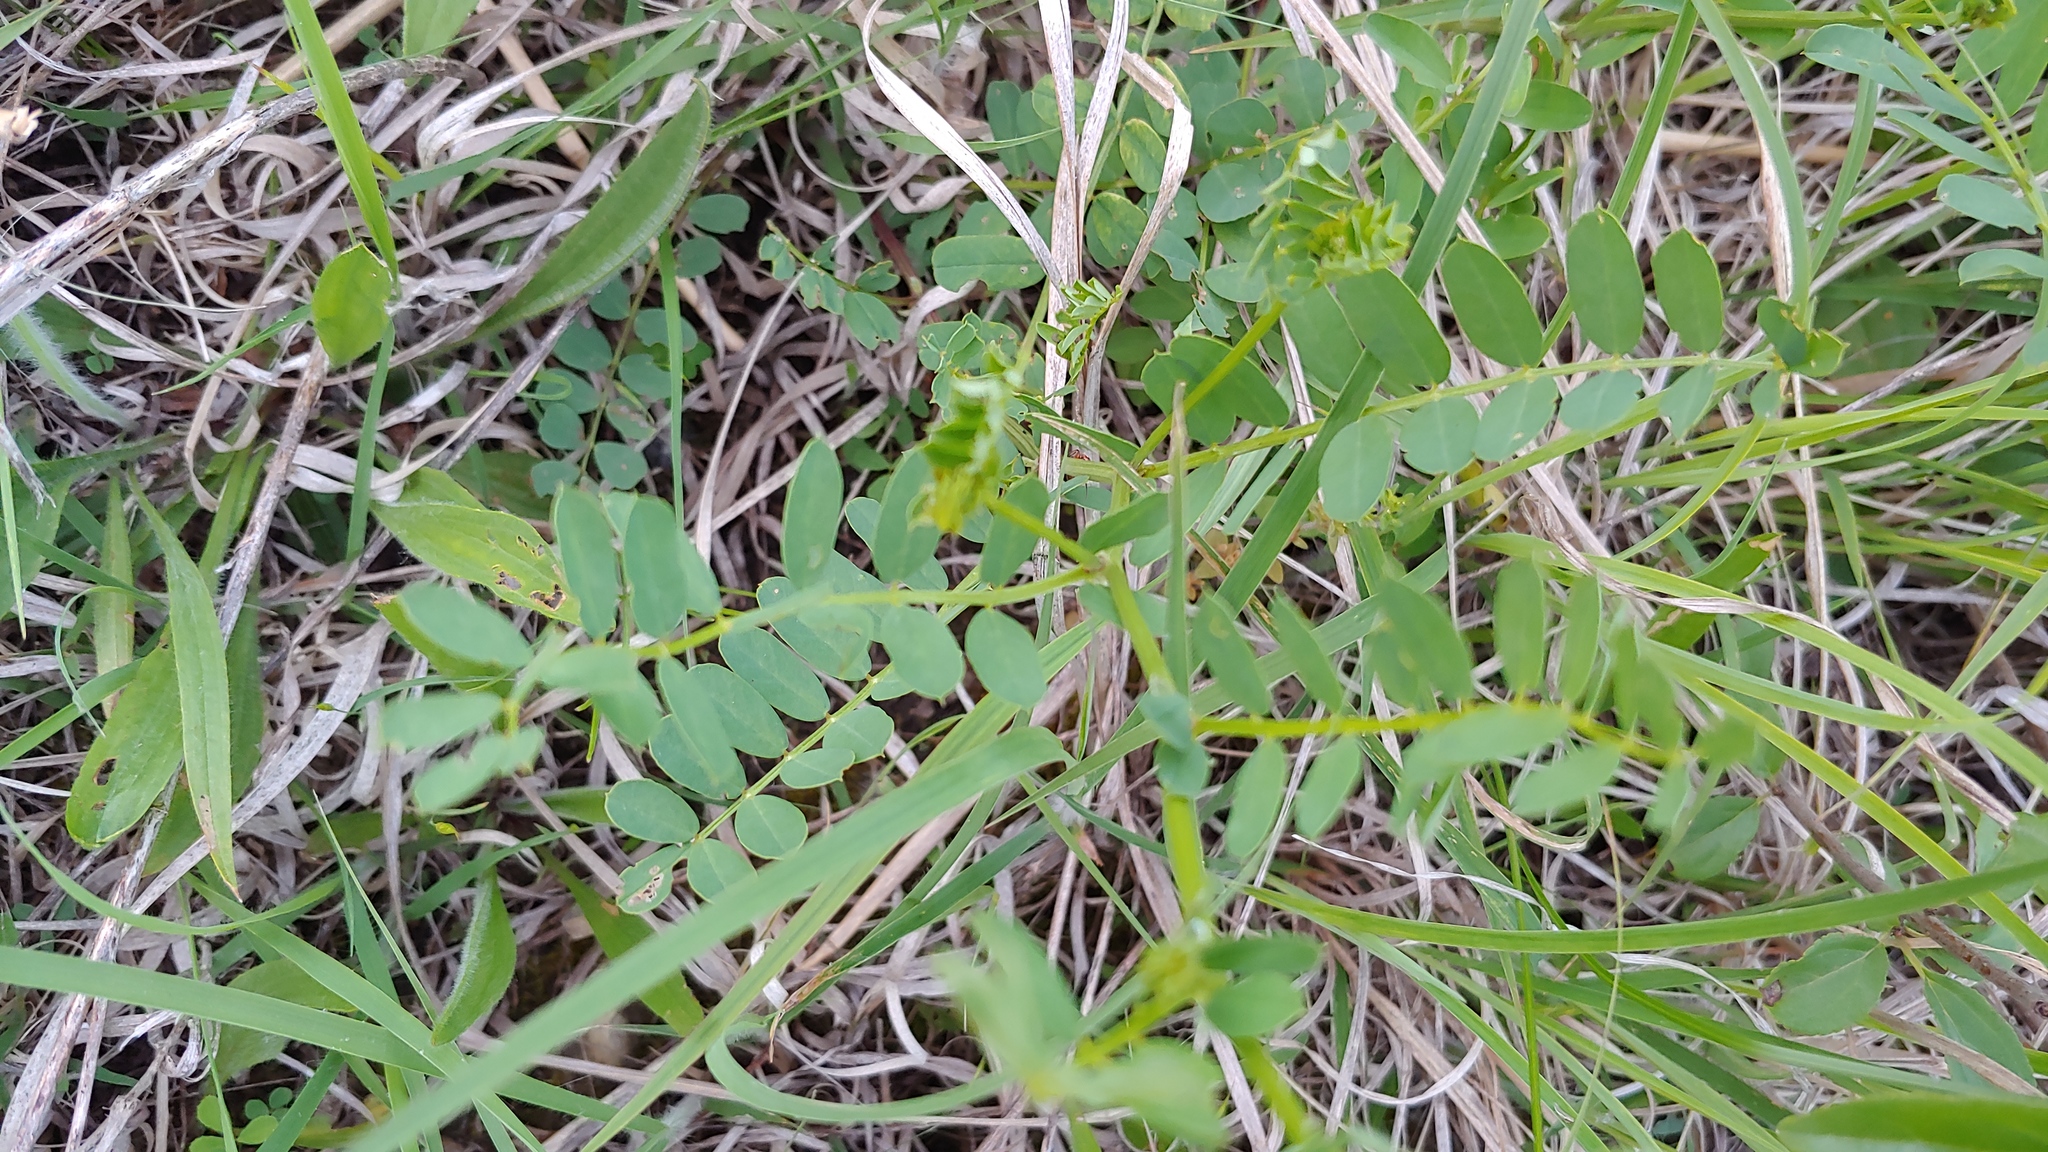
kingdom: Plantae
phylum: Tracheophyta
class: Magnoliopsida
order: Fabales
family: Fabaceae
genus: Coronilla
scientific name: Coronilla varia
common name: Crownvetch
